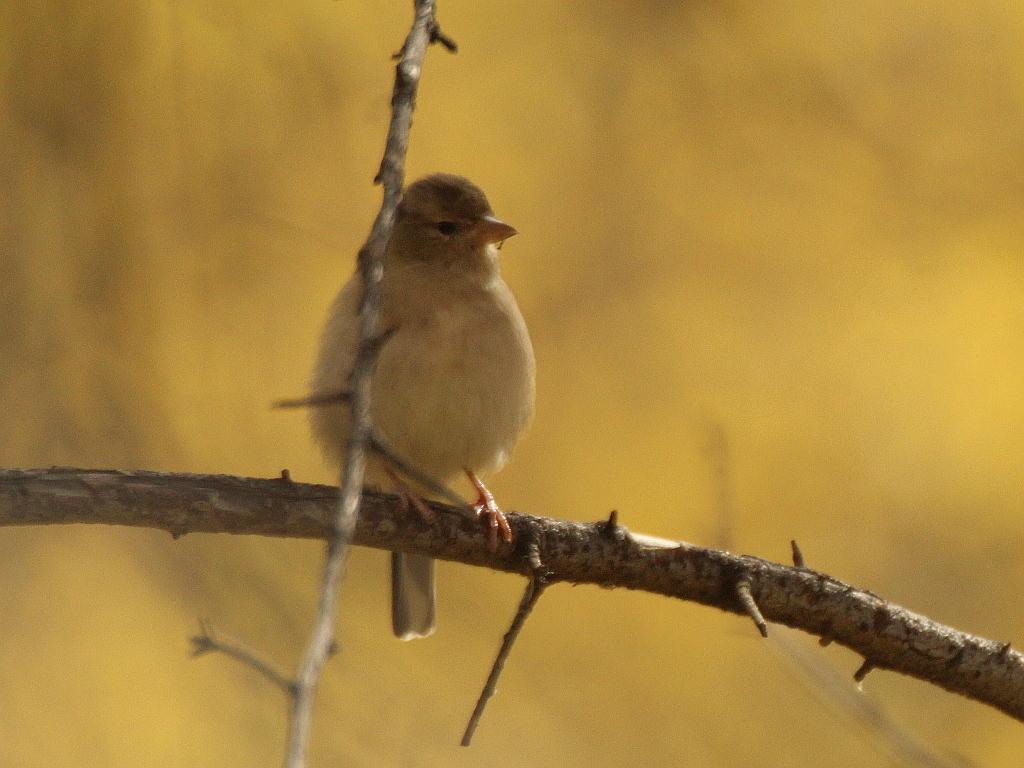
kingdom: Animalia
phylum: Chordata
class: Aves
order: Passeriformes
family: Fringillidae
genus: Fringilla
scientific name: Fringilla coelebs
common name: Common chaffinch
